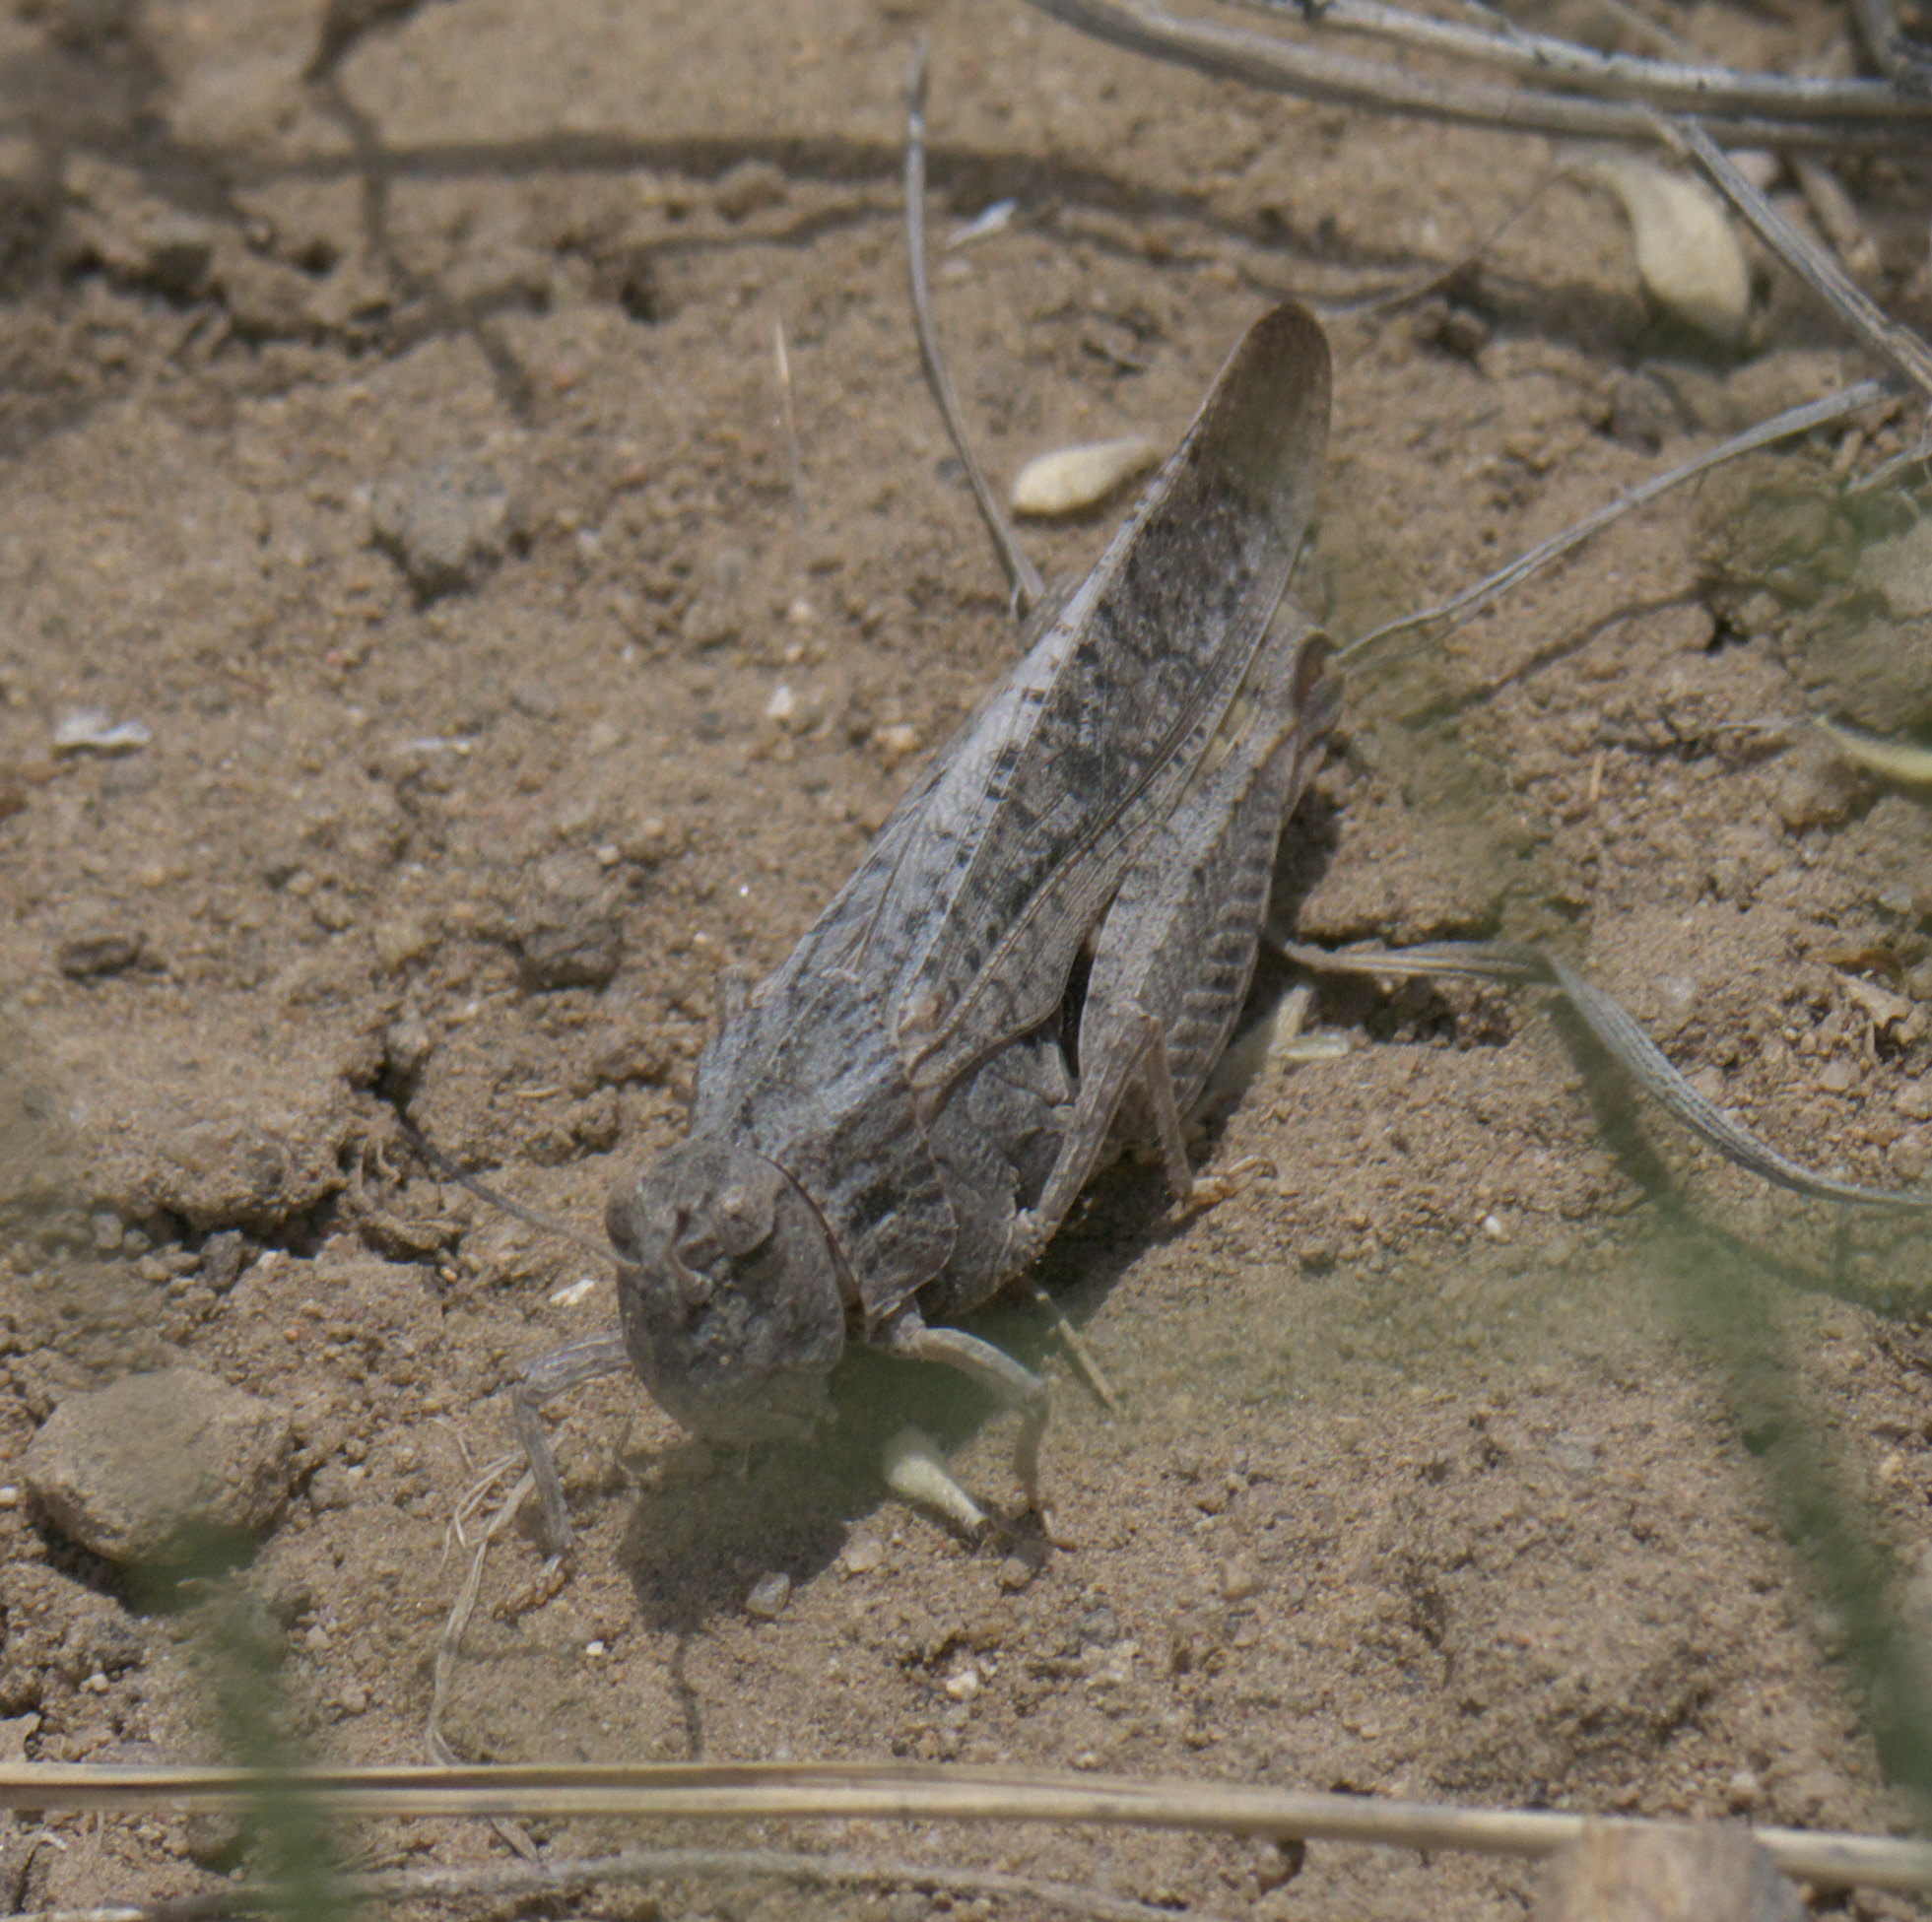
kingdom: Animalia
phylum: Arthropoda
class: Insecta
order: Orthoptera
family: Acrididae
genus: Arphia
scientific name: Arphia conspersa
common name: Speckle-winged rangeland grasshopper
